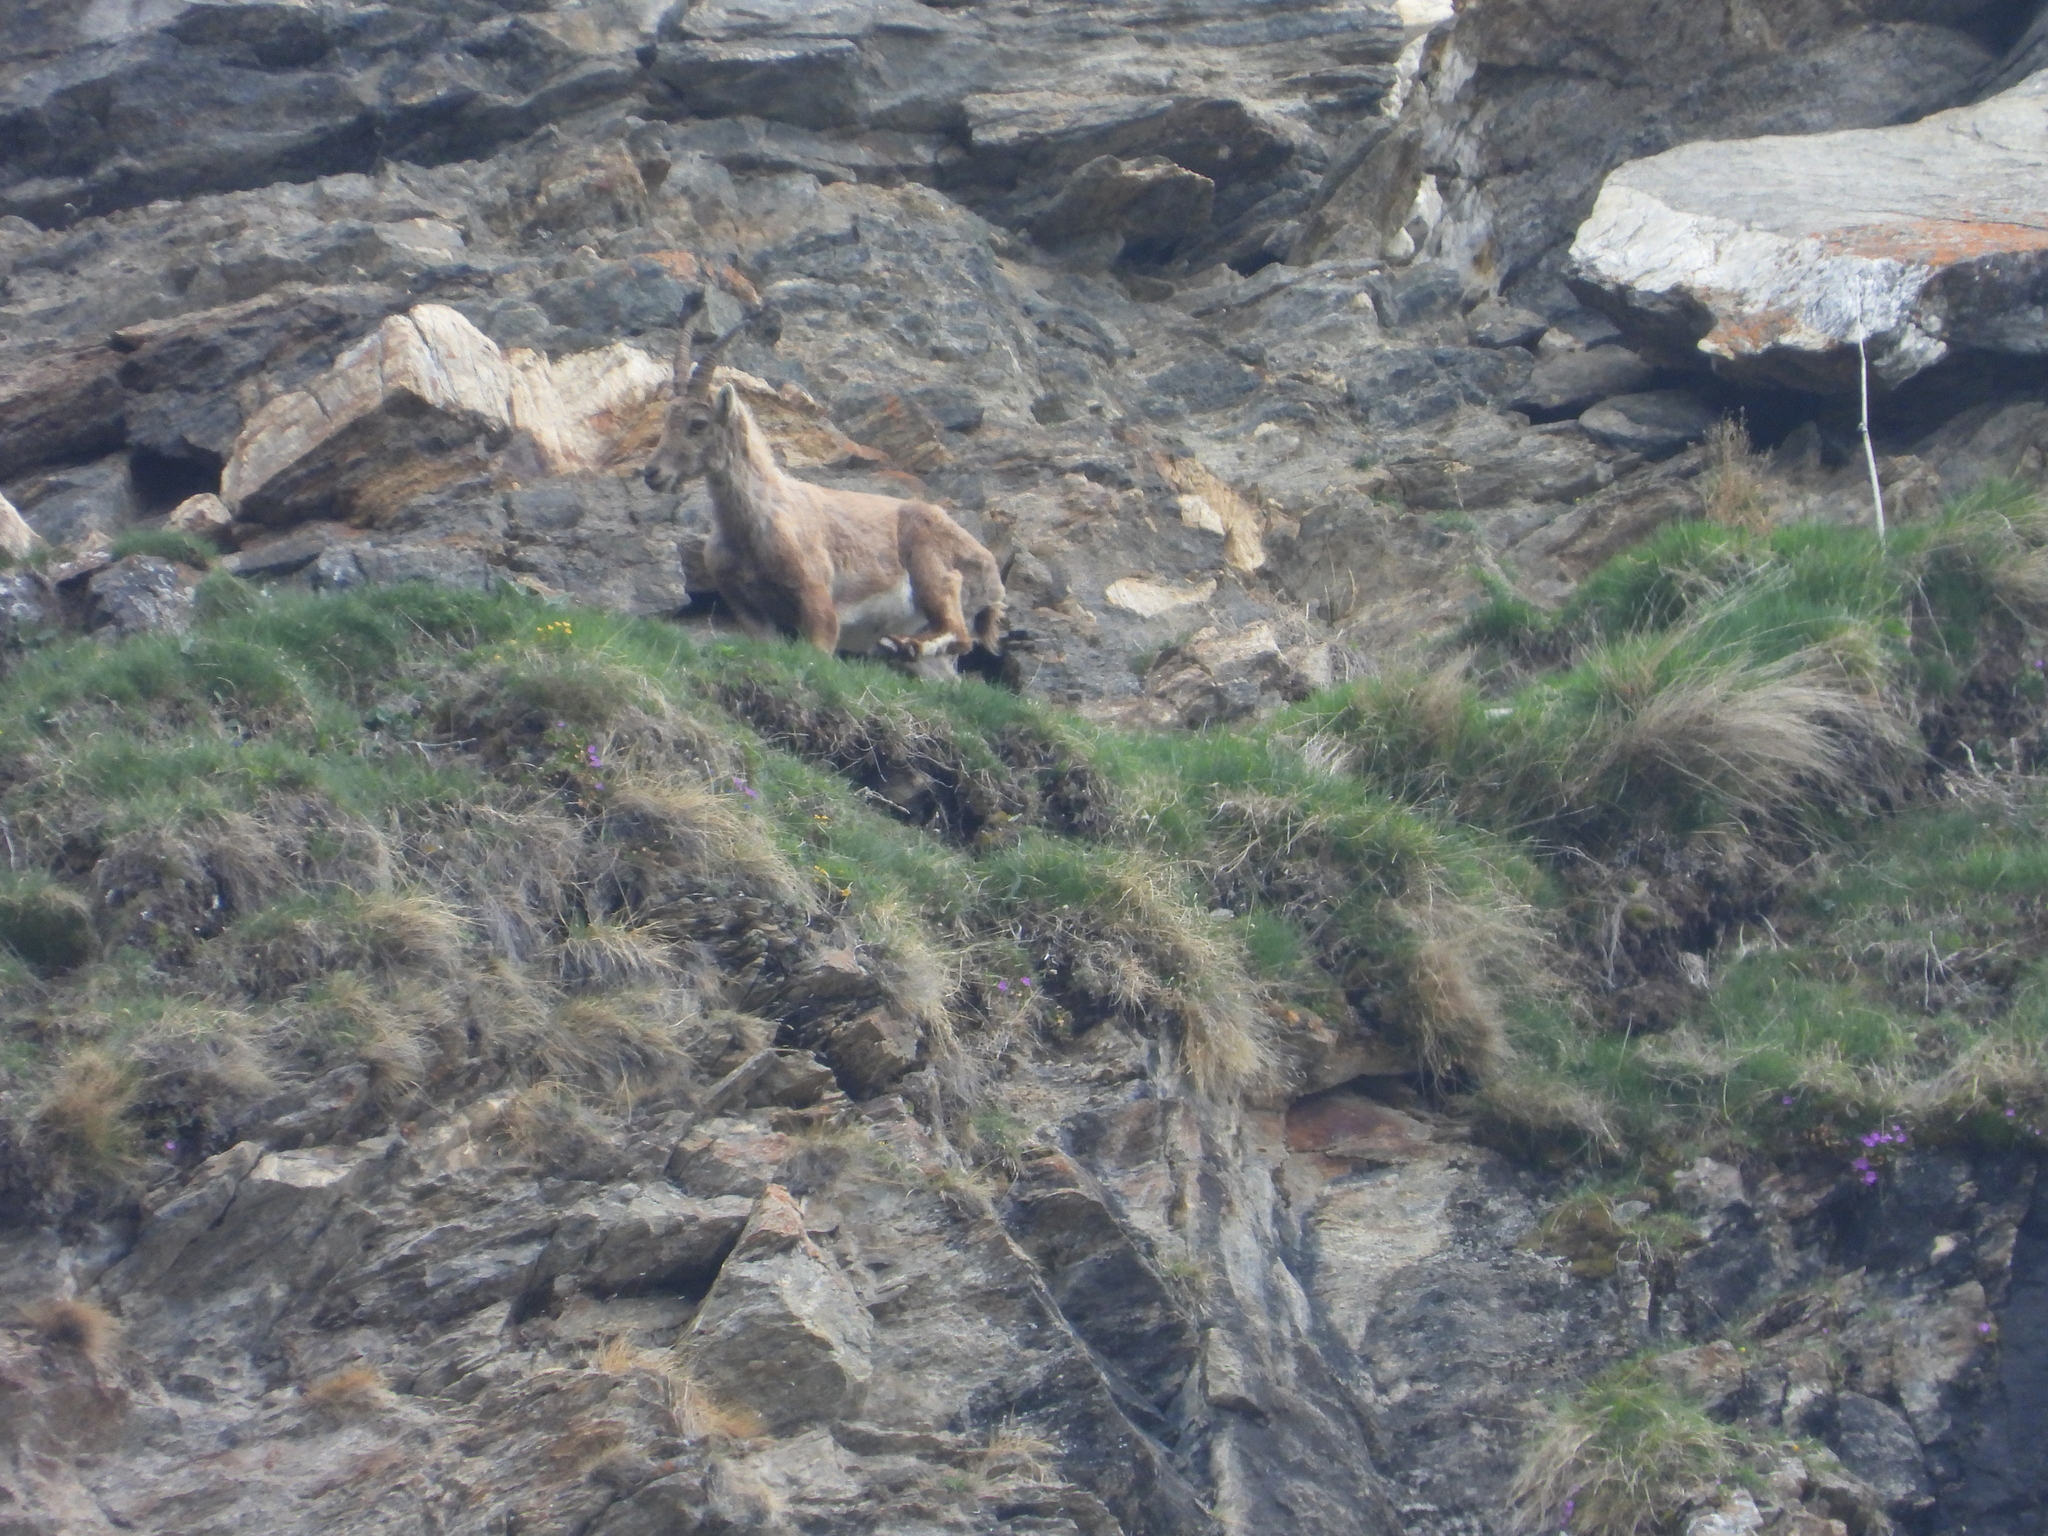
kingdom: Animalia
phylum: Chordata
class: Mammalia
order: Artiodactyla
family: Bovidae
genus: Capra
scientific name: Capra ibex
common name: Alpine ibex
